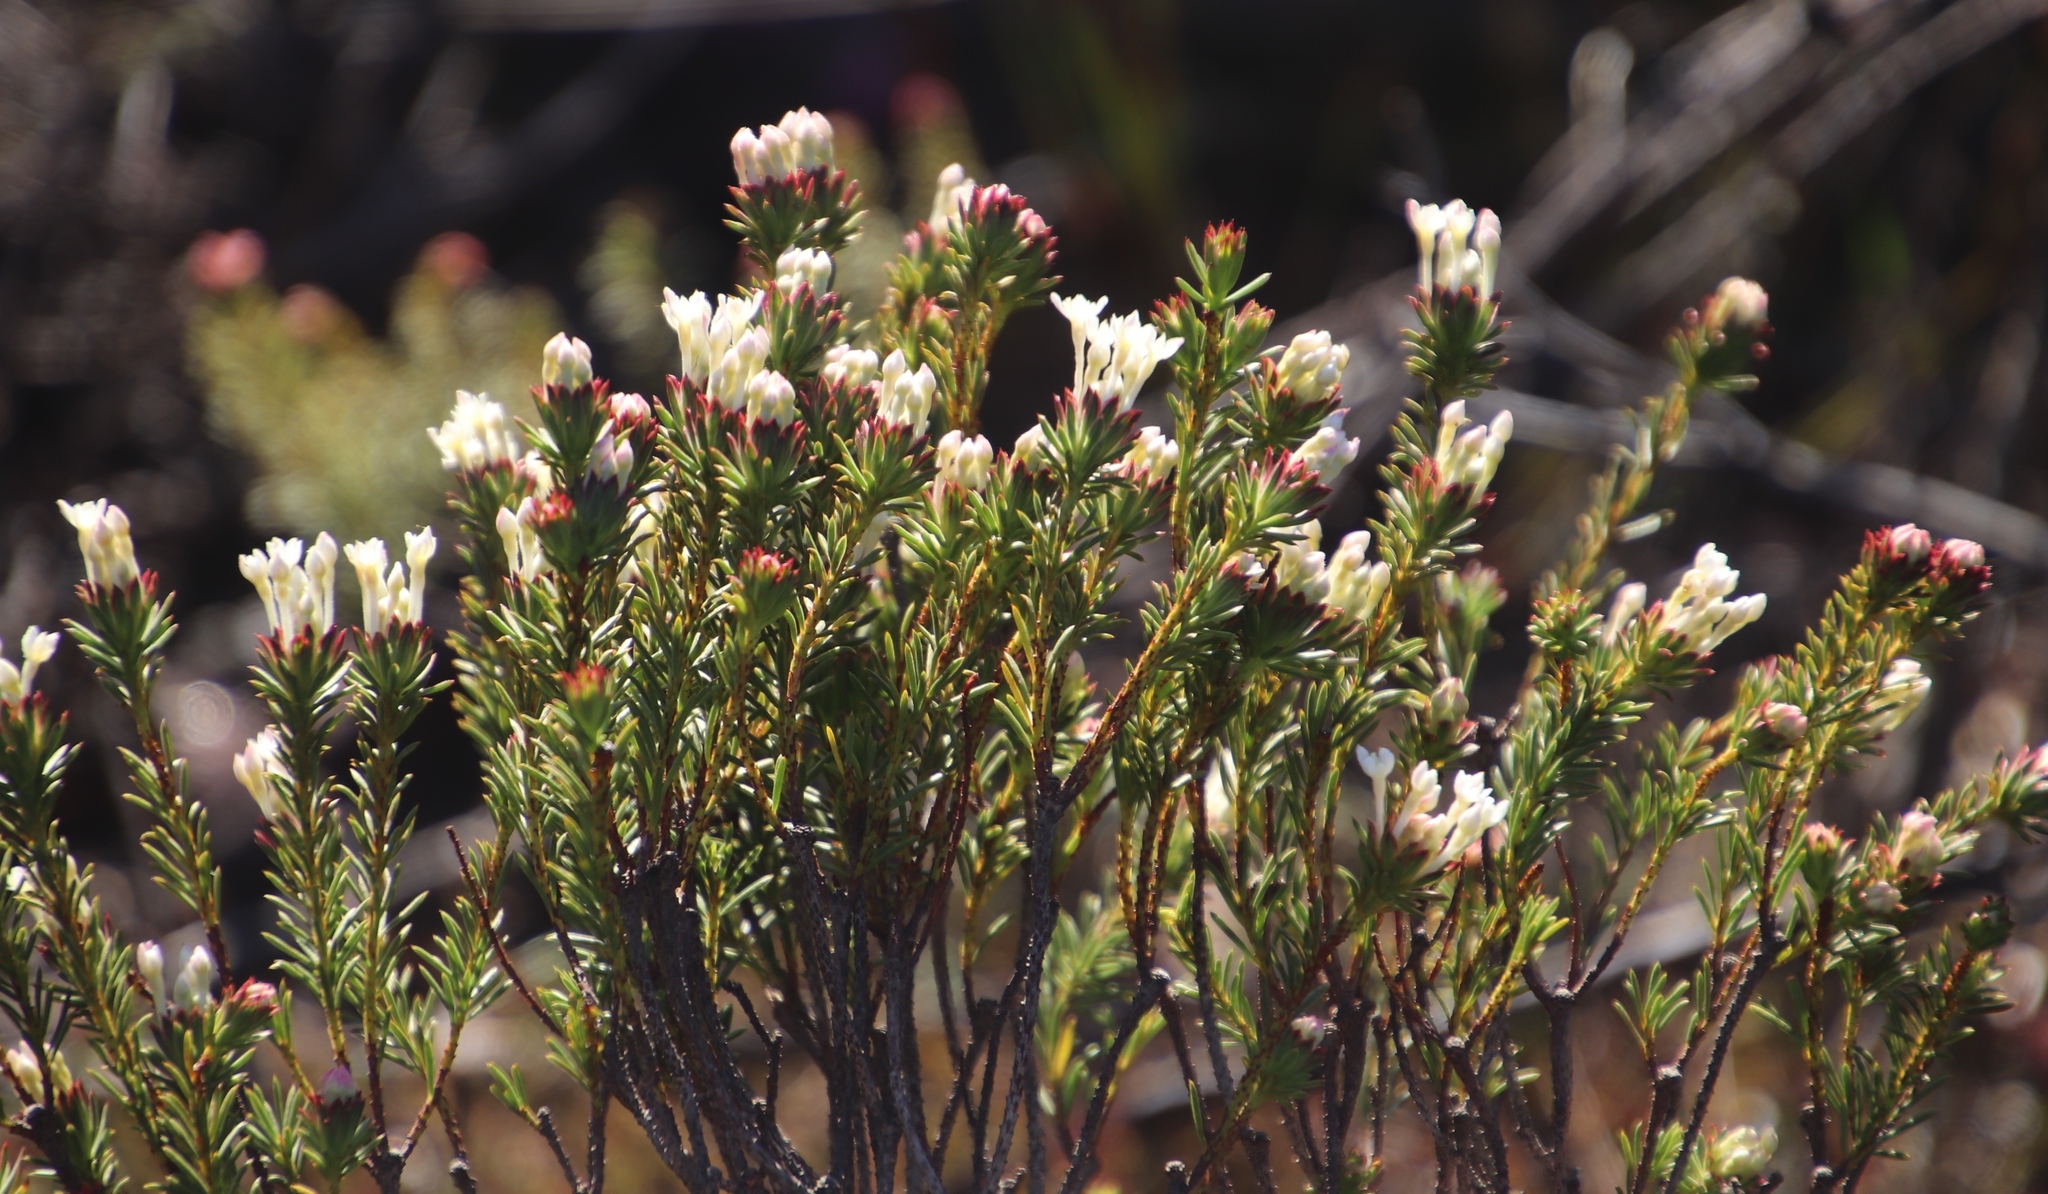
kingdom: Plantae
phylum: Tracheophyta
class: Magnoliopsida
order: Malvales
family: Thymelaeaceae
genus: Gnidia
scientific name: Gnidia pinifolia
